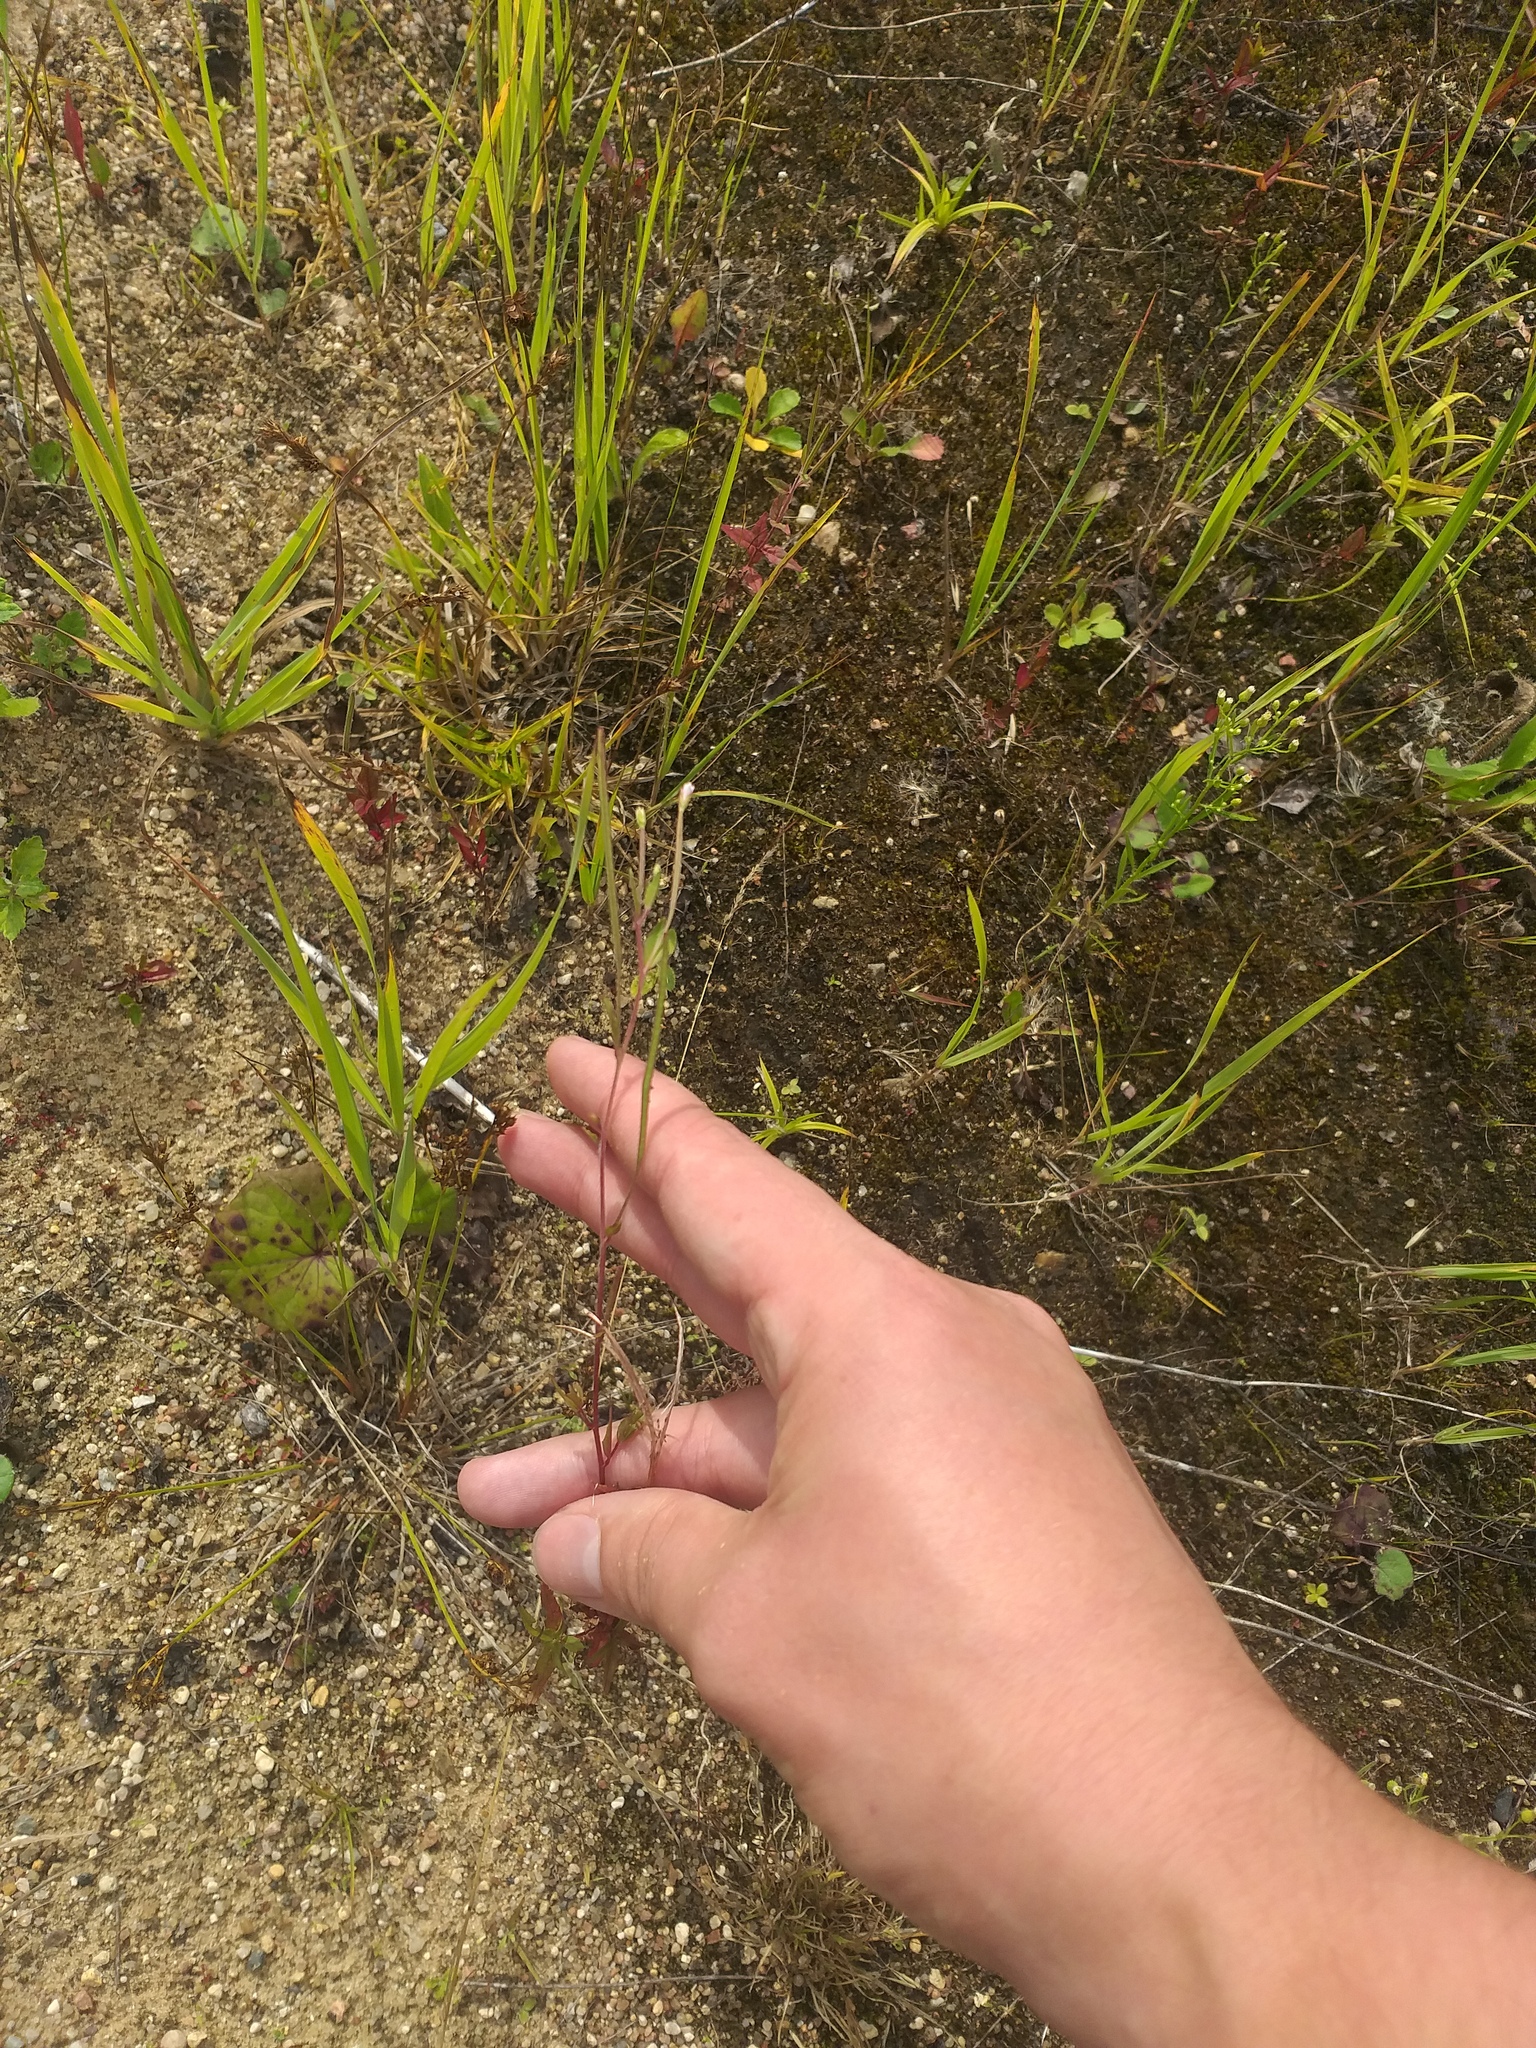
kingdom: Plantae
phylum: Tracheophyta
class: Magnoliopsida
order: Myrtales
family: Onagraceae
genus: Epilobium
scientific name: Epilobium pseudorubescens
